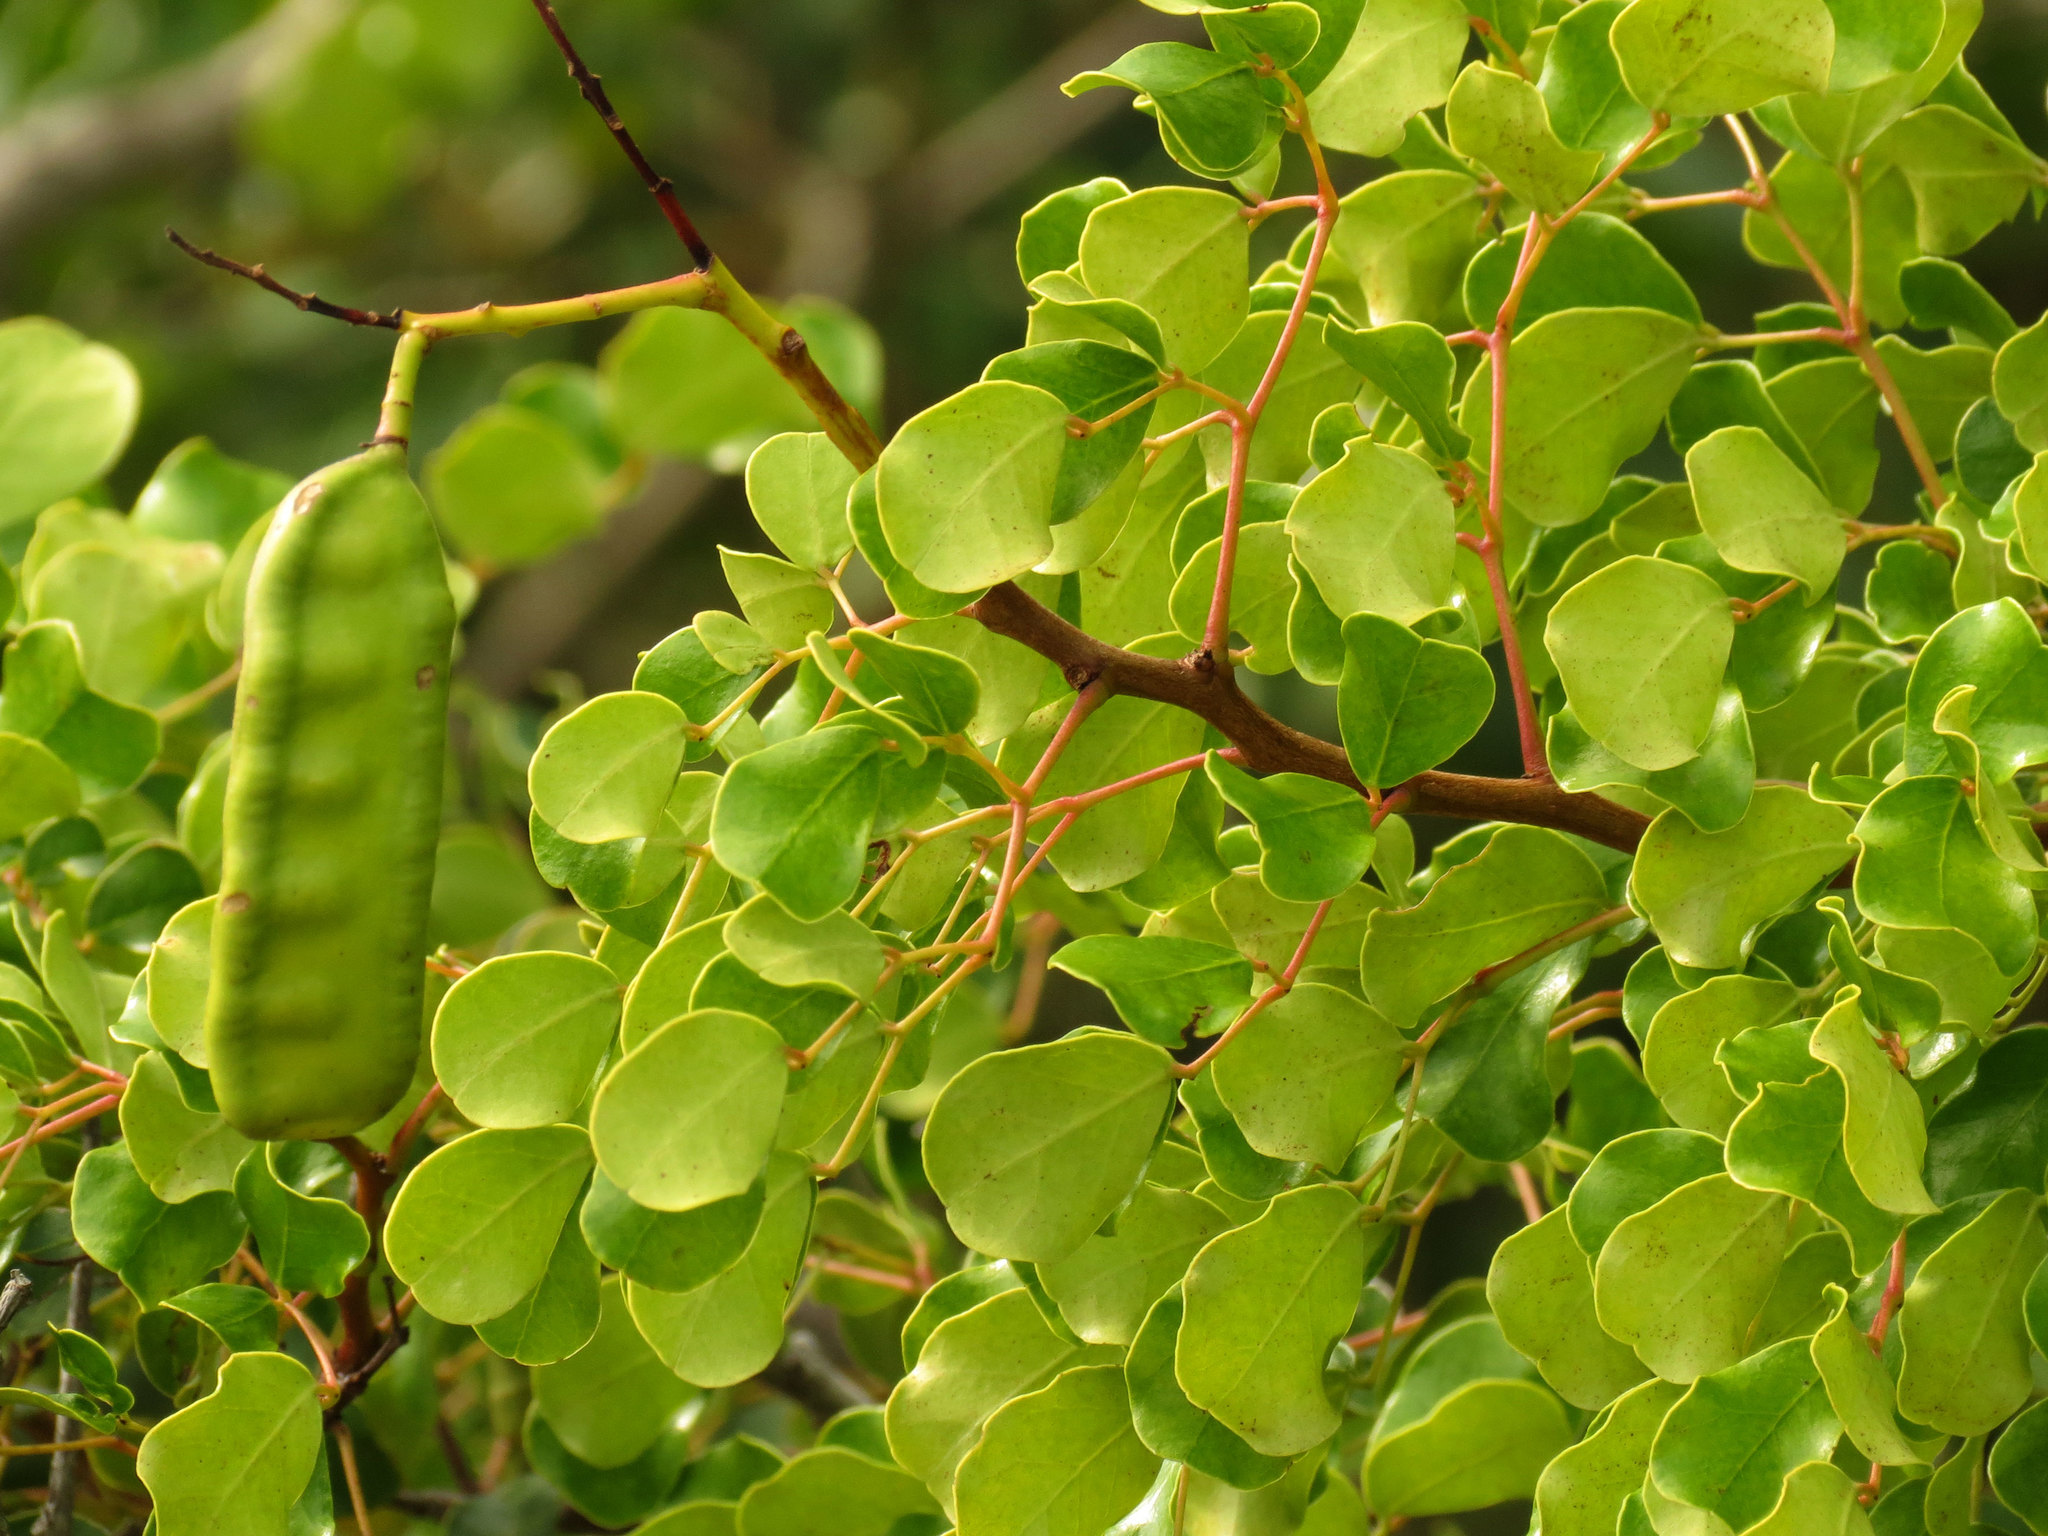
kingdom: Plantae
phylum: Tracheophyta
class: Magnoliopsida
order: Fabales
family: Fabaceae
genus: Tara
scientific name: Tara vesicaria
